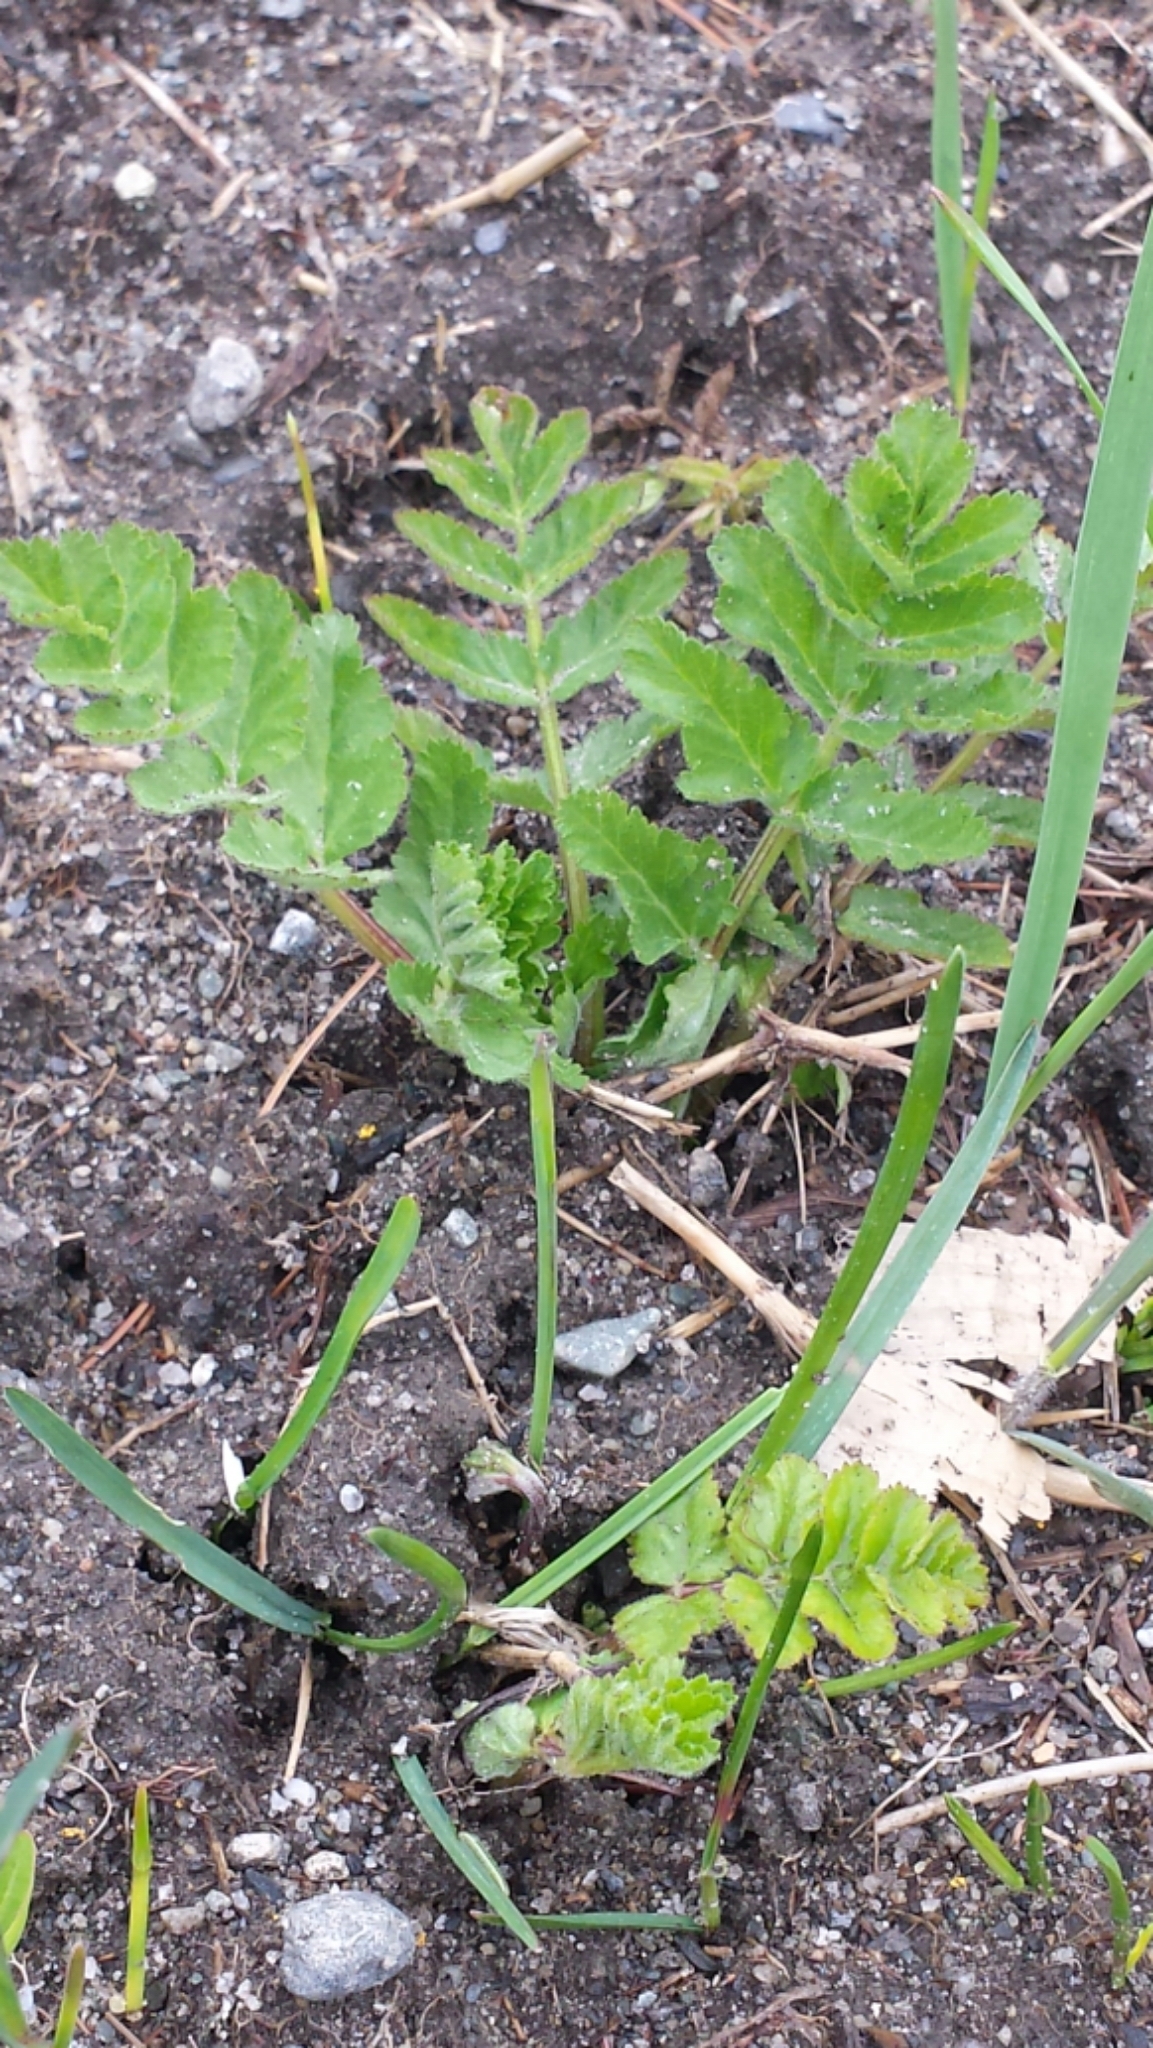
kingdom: Plantae
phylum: Tracheophyta
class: Magnoliopsida
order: Apiales
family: Apiaceae
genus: Pastinaca
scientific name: Pastinaca sativa
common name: Wild parsnip
